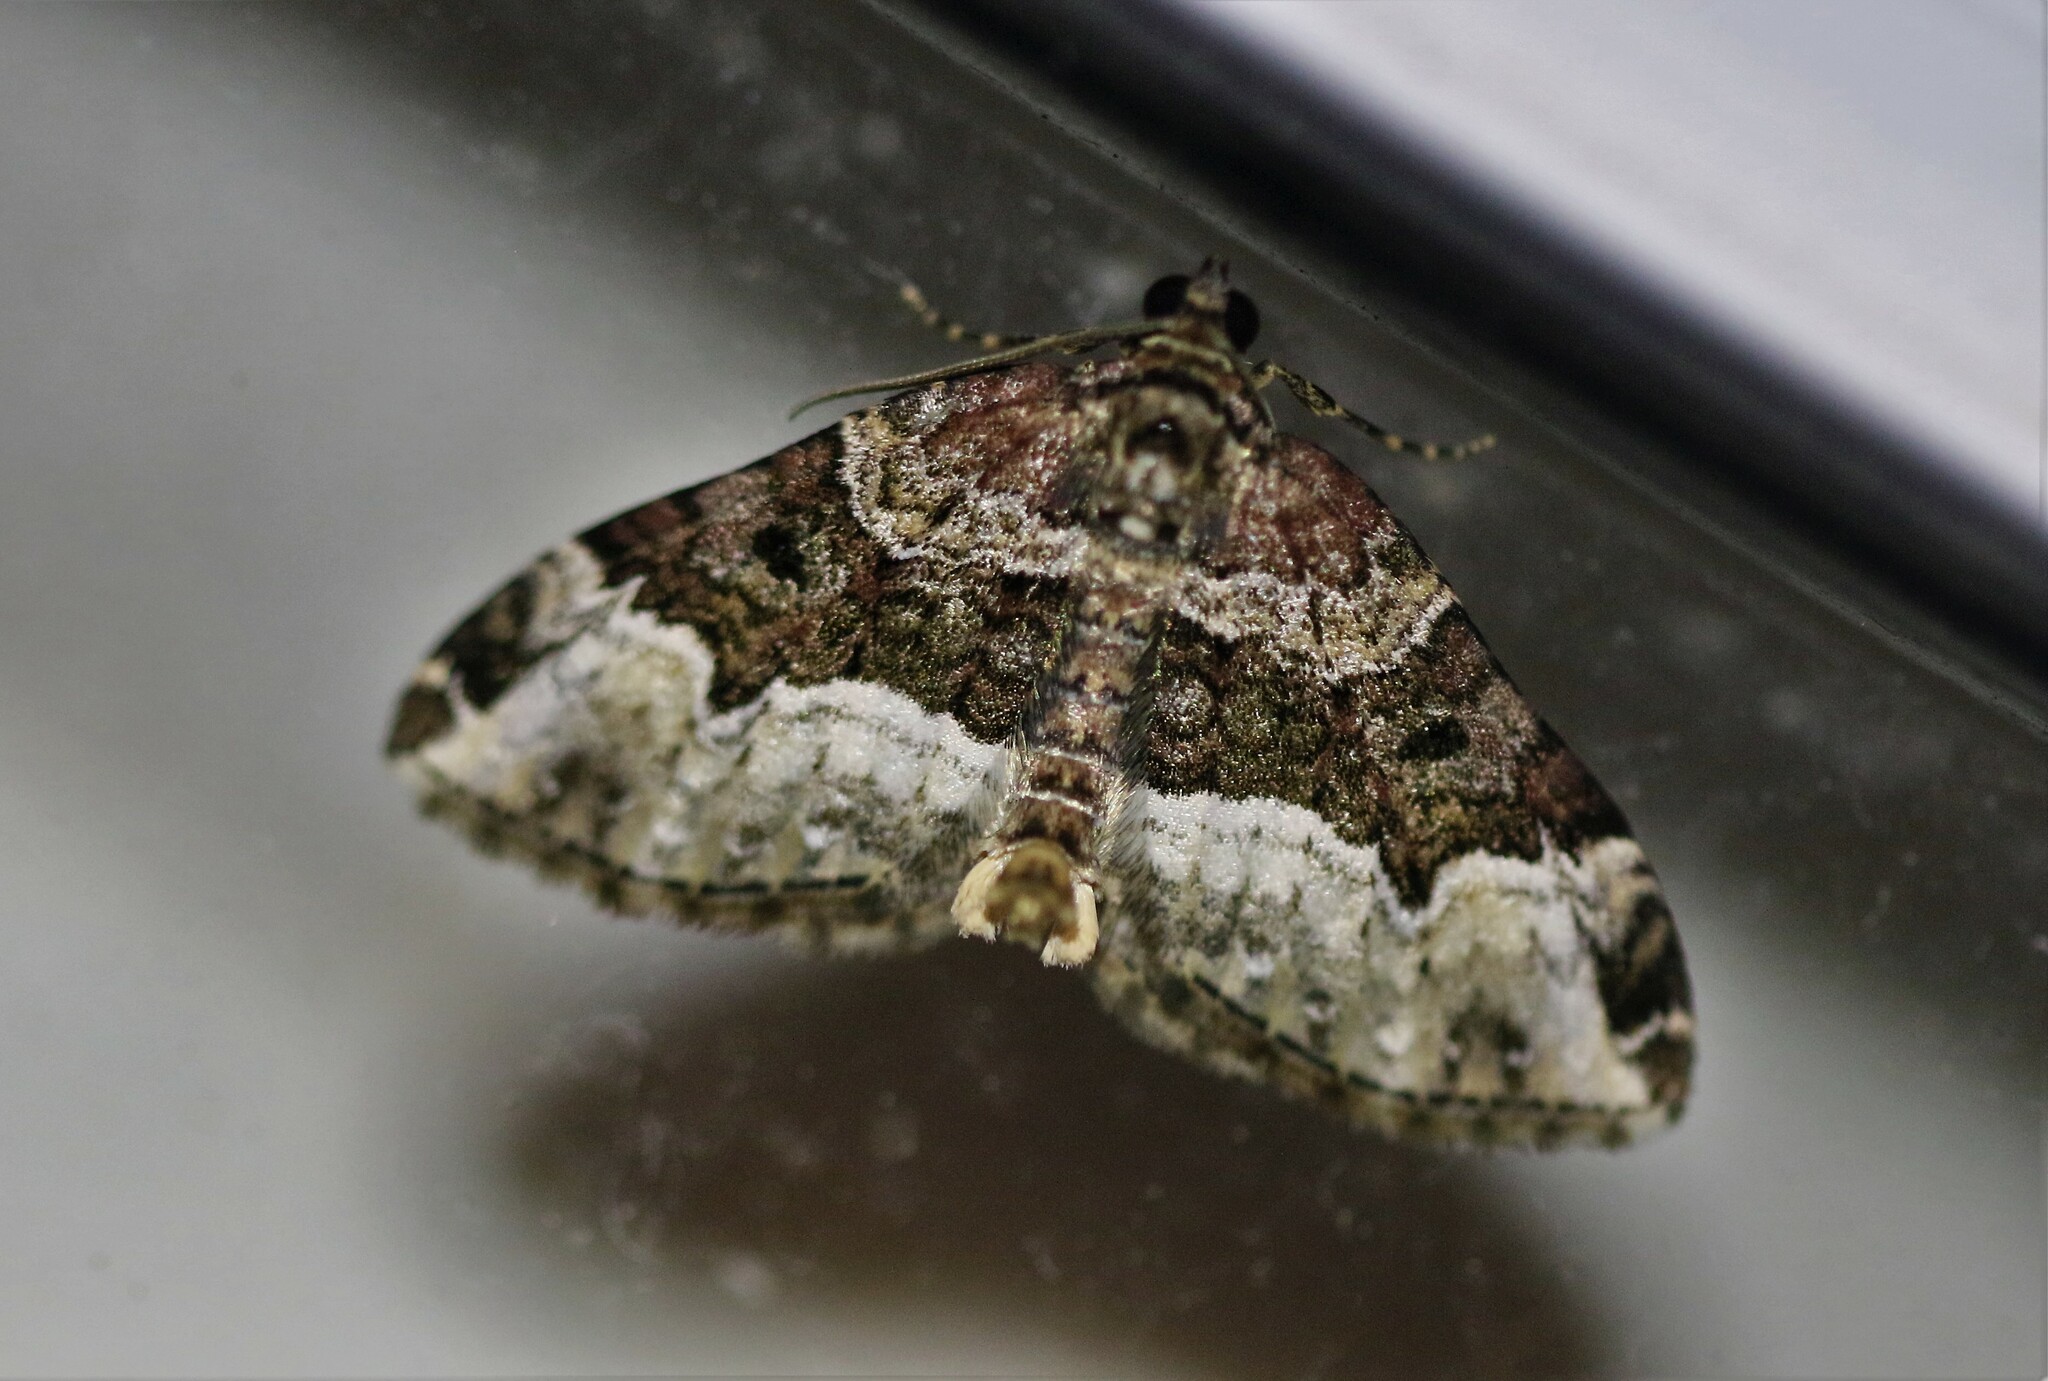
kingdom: Animalia
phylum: Arthropoda
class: Insecta
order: Lepidoptera
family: Geometridae
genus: Euphyia
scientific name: Euphyia intermediata
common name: Sharp-angled carpet
